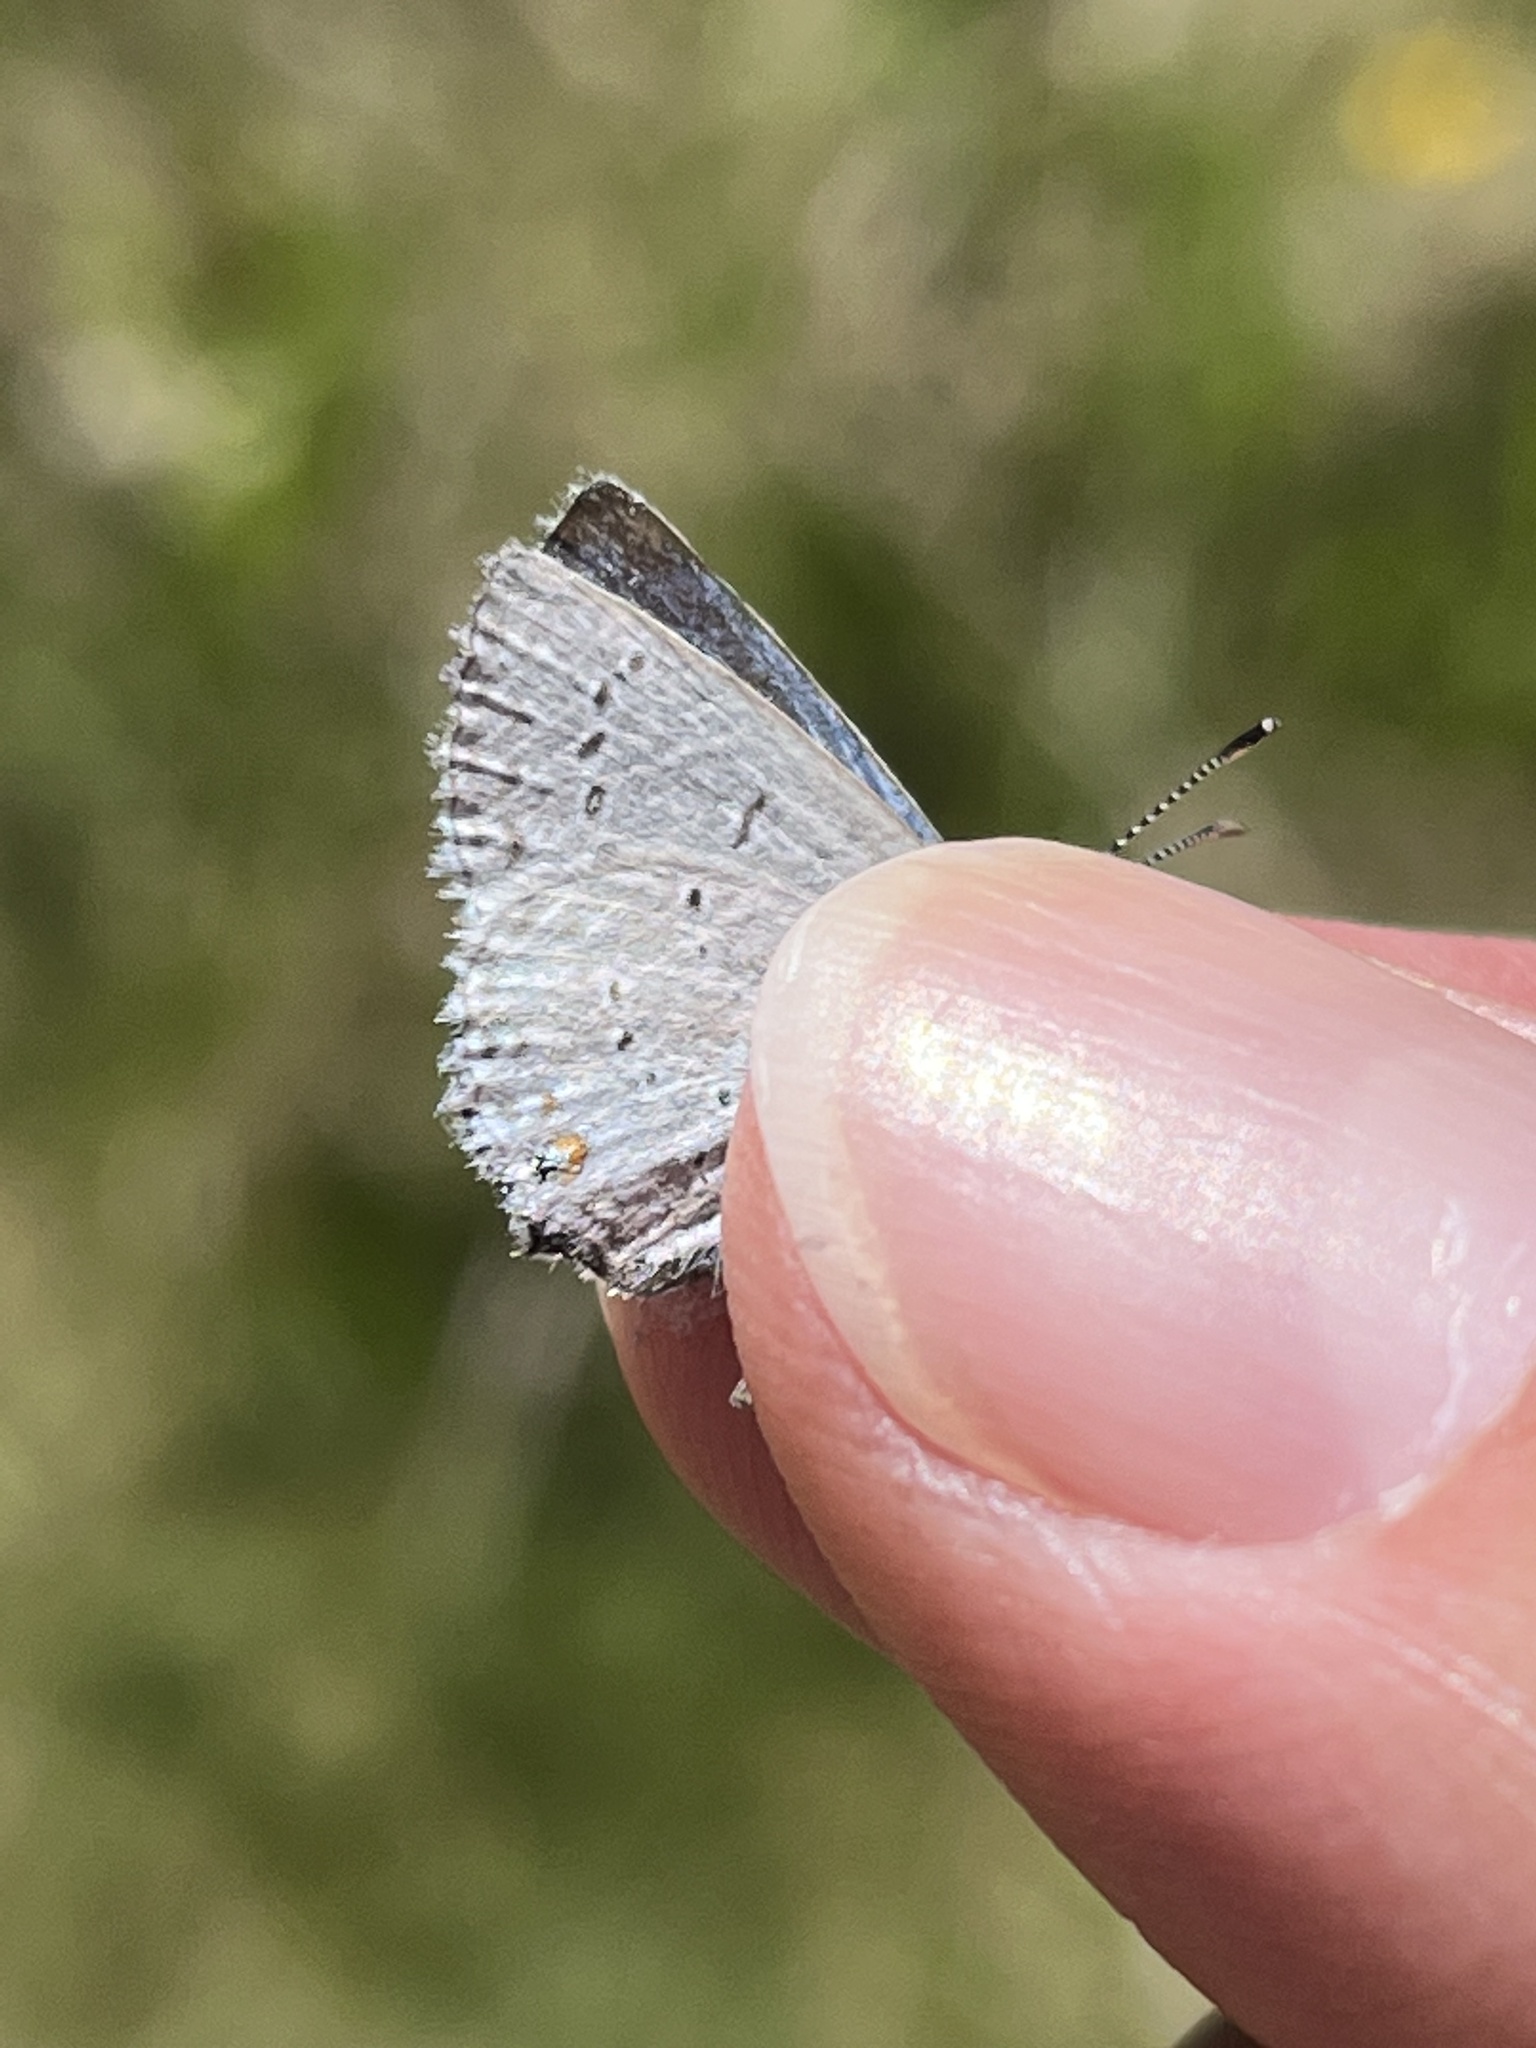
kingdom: Animalia
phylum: Arthropoda
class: Insecta
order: Lepidoptera
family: Lycaenidae
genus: Elkalyce
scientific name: Elkalyce amyntula
